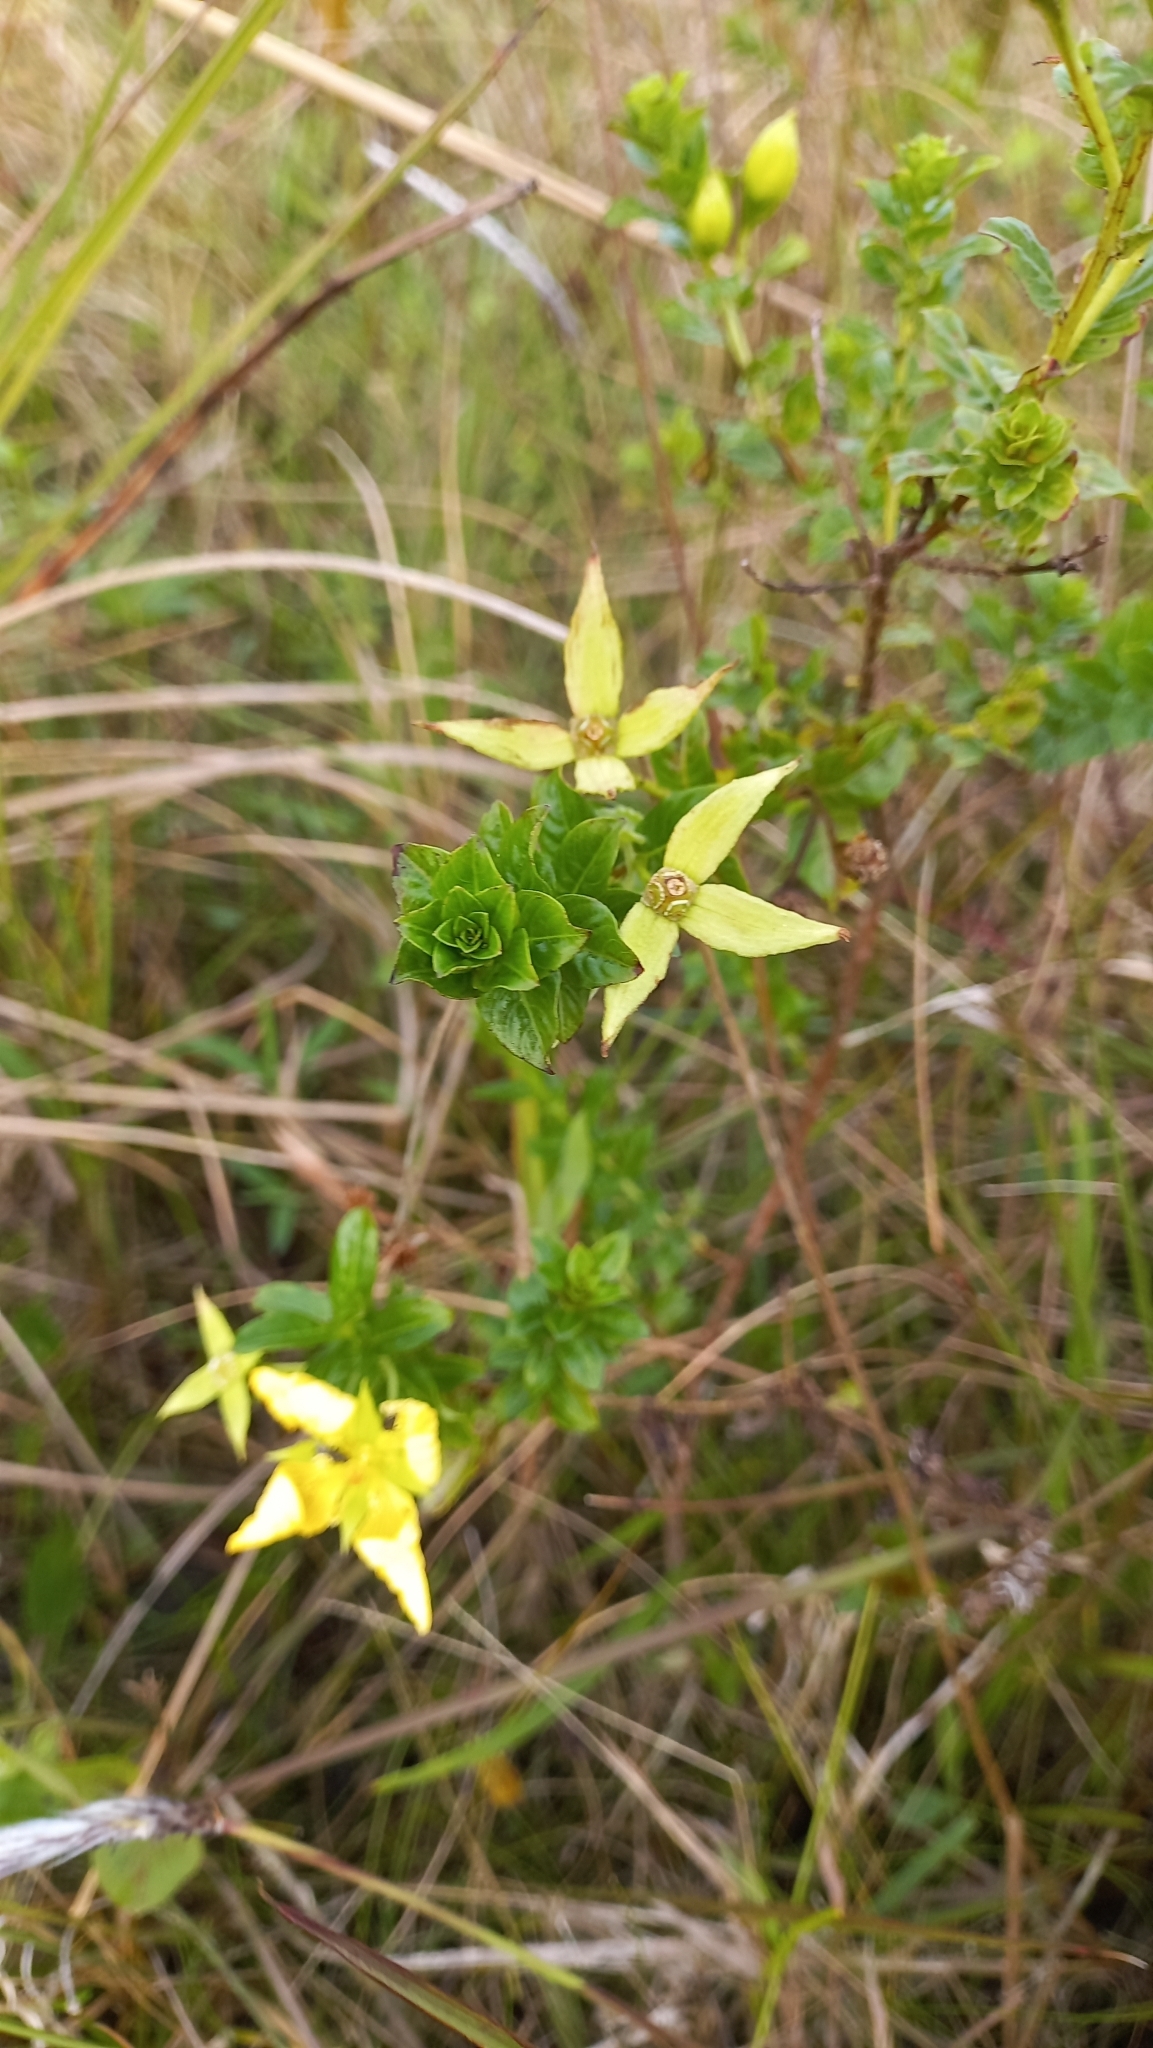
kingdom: Plantae
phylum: Tracheophyta
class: Magnoliopsida
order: Myrtales
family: Onagraceae
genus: Ludwigia
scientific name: Ludwigia multinervia
